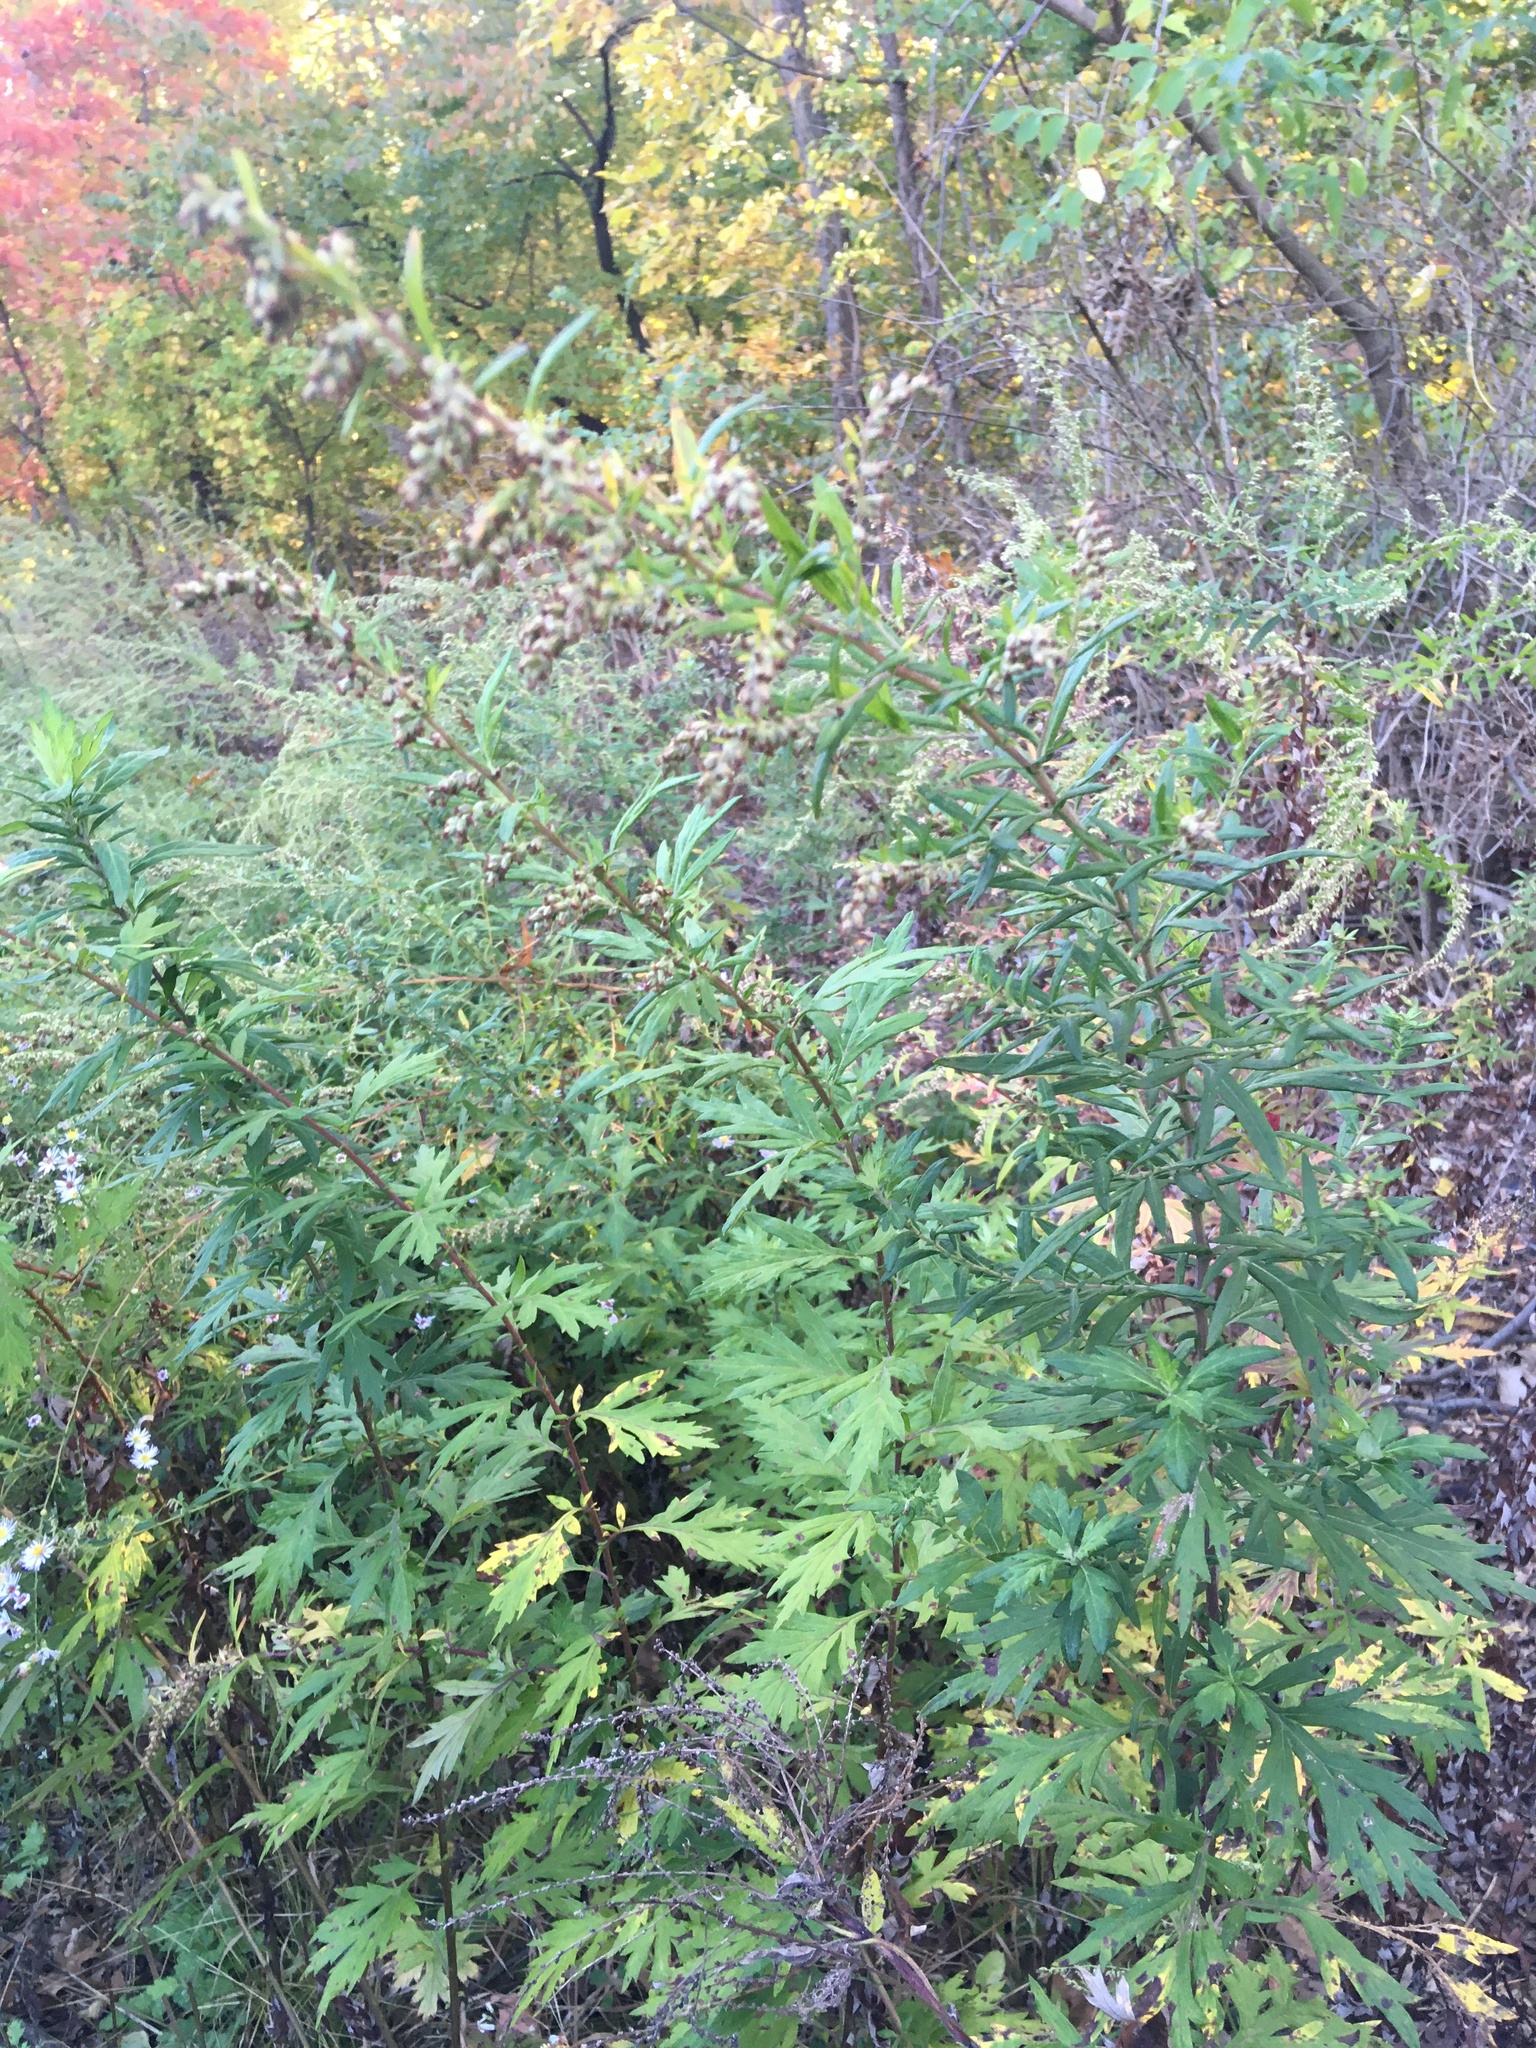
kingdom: Plantae
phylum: Tracheophyta
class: Magnoliopsida
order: Asterales
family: Asteraceae
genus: Artemisia
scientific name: Artemisia vulgaris
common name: Mugwort
